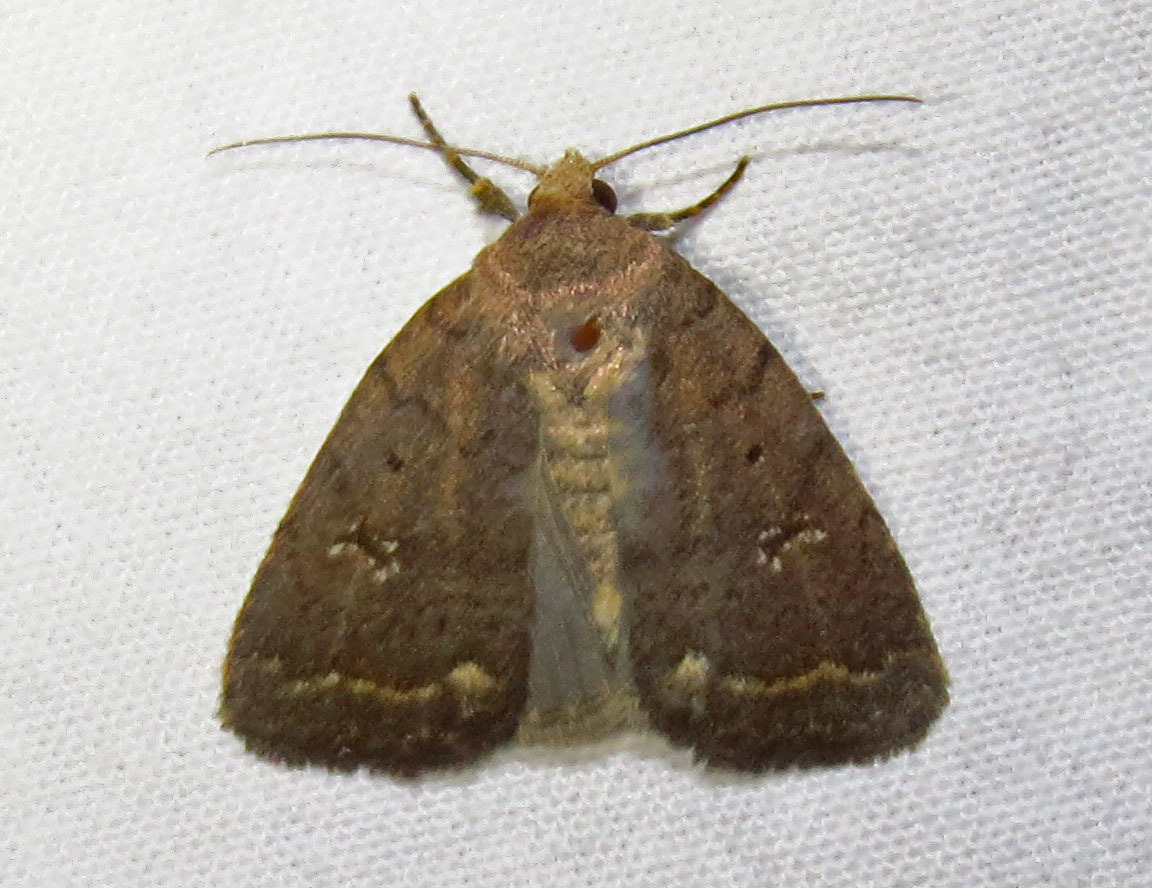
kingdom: Animalia
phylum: Arthropoda
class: Insecta
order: Lepidoptera
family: Noctuidae
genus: Athetis
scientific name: Athetis tarda
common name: Slowpoke moth
